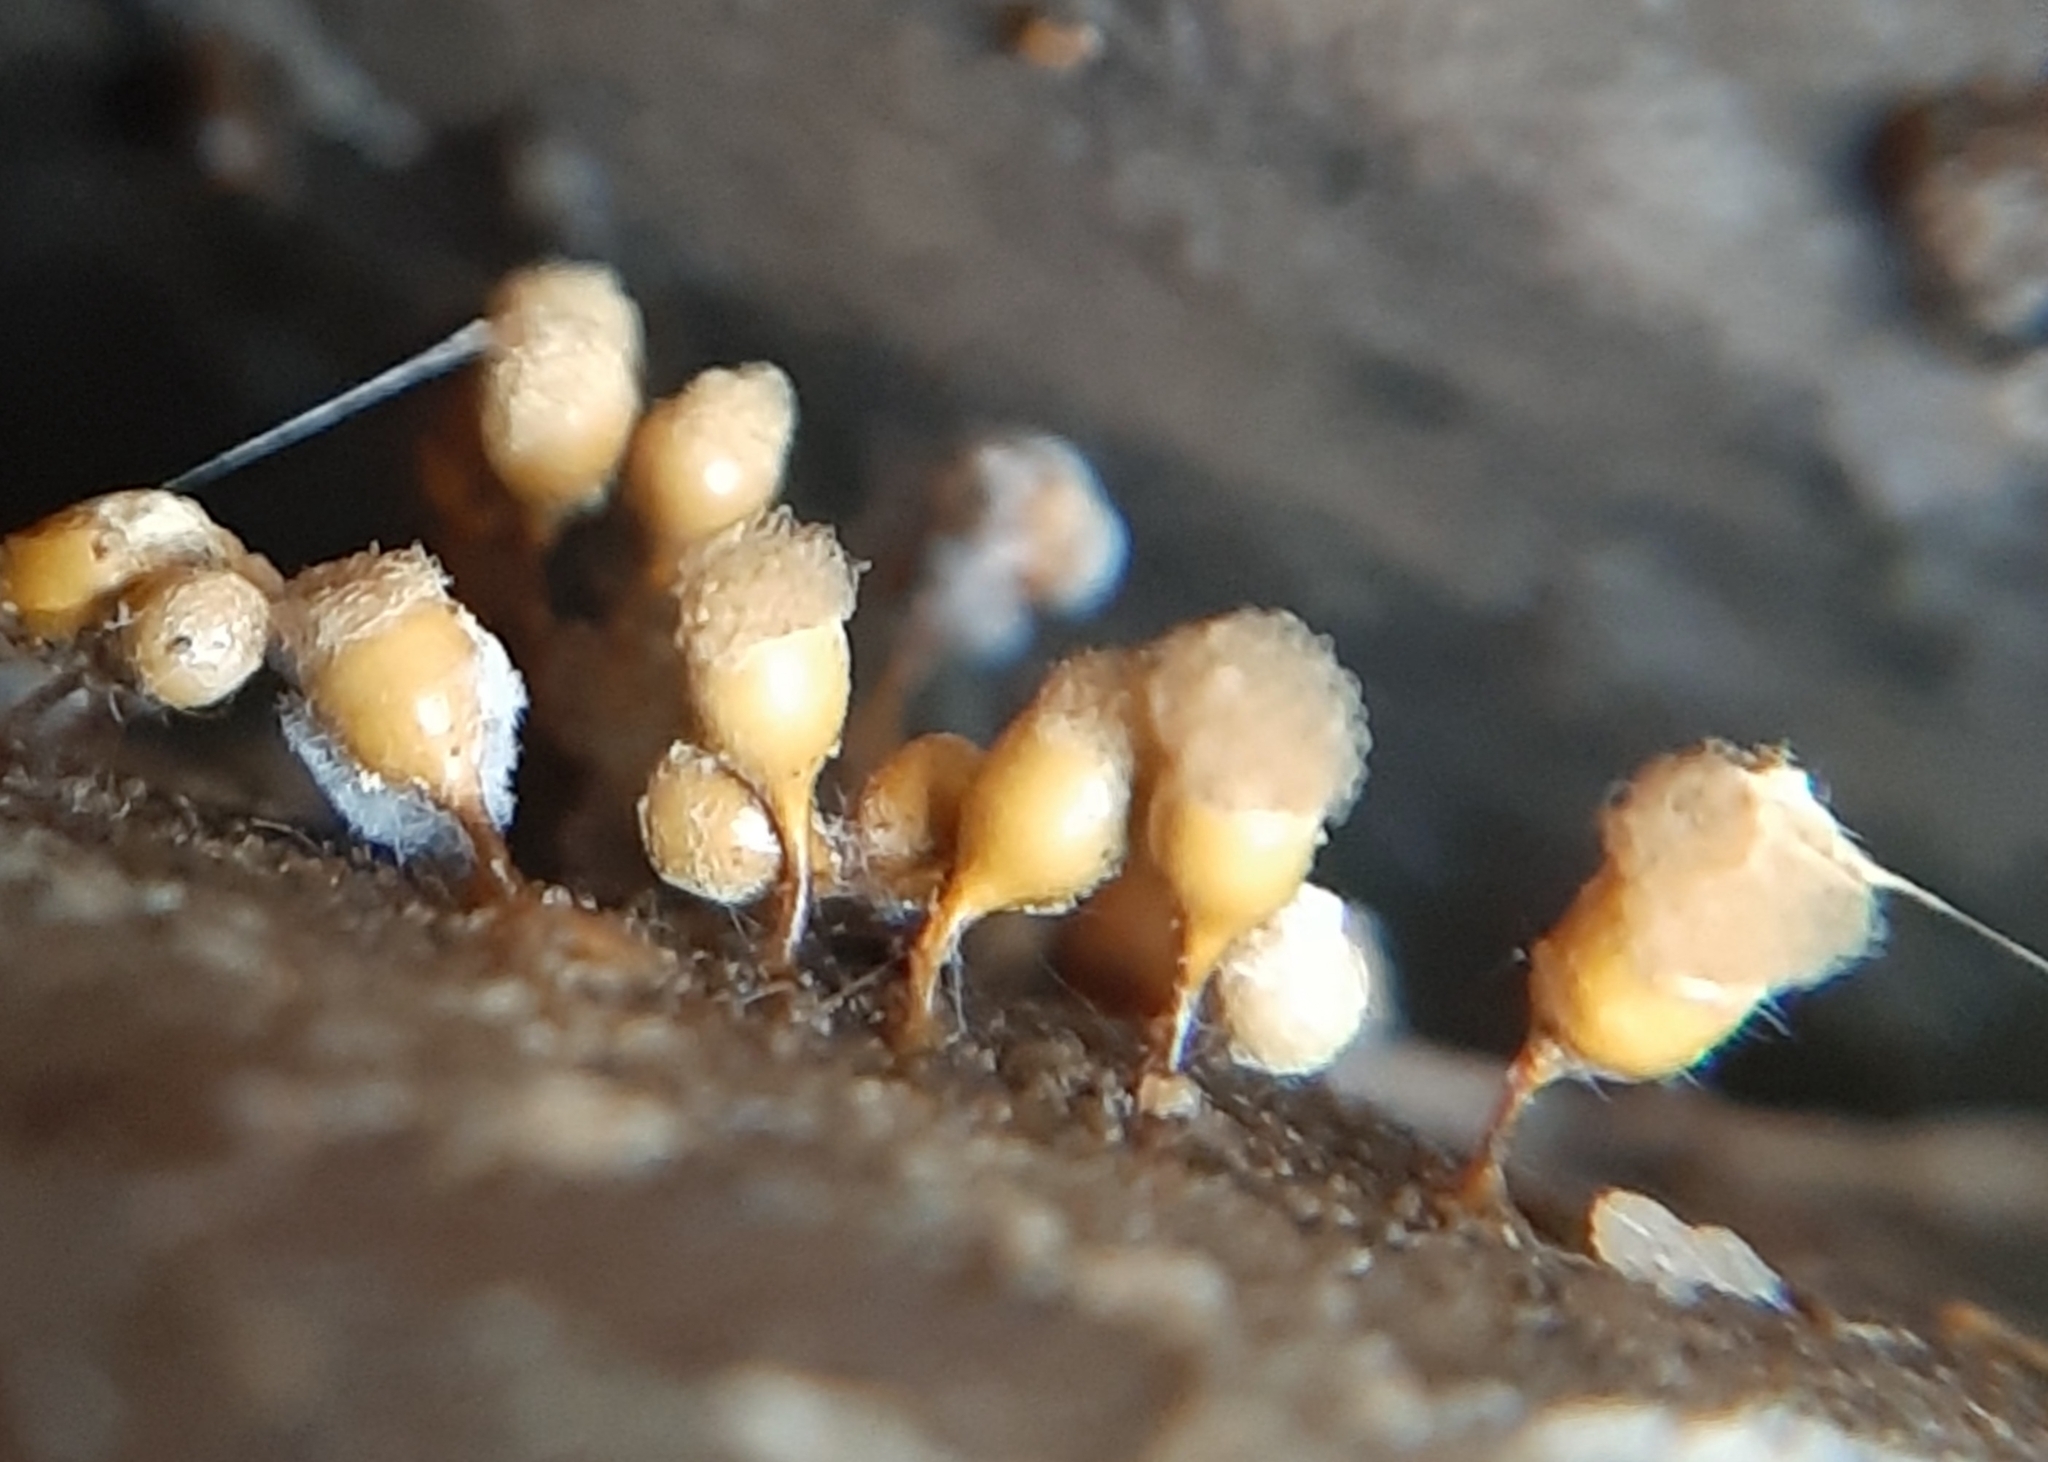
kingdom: Protozoa
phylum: Mycetozoa
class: Myxomycetes
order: Trichiales
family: Arcyriaceae
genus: Hemitrichia
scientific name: Hemitrichia clavata
